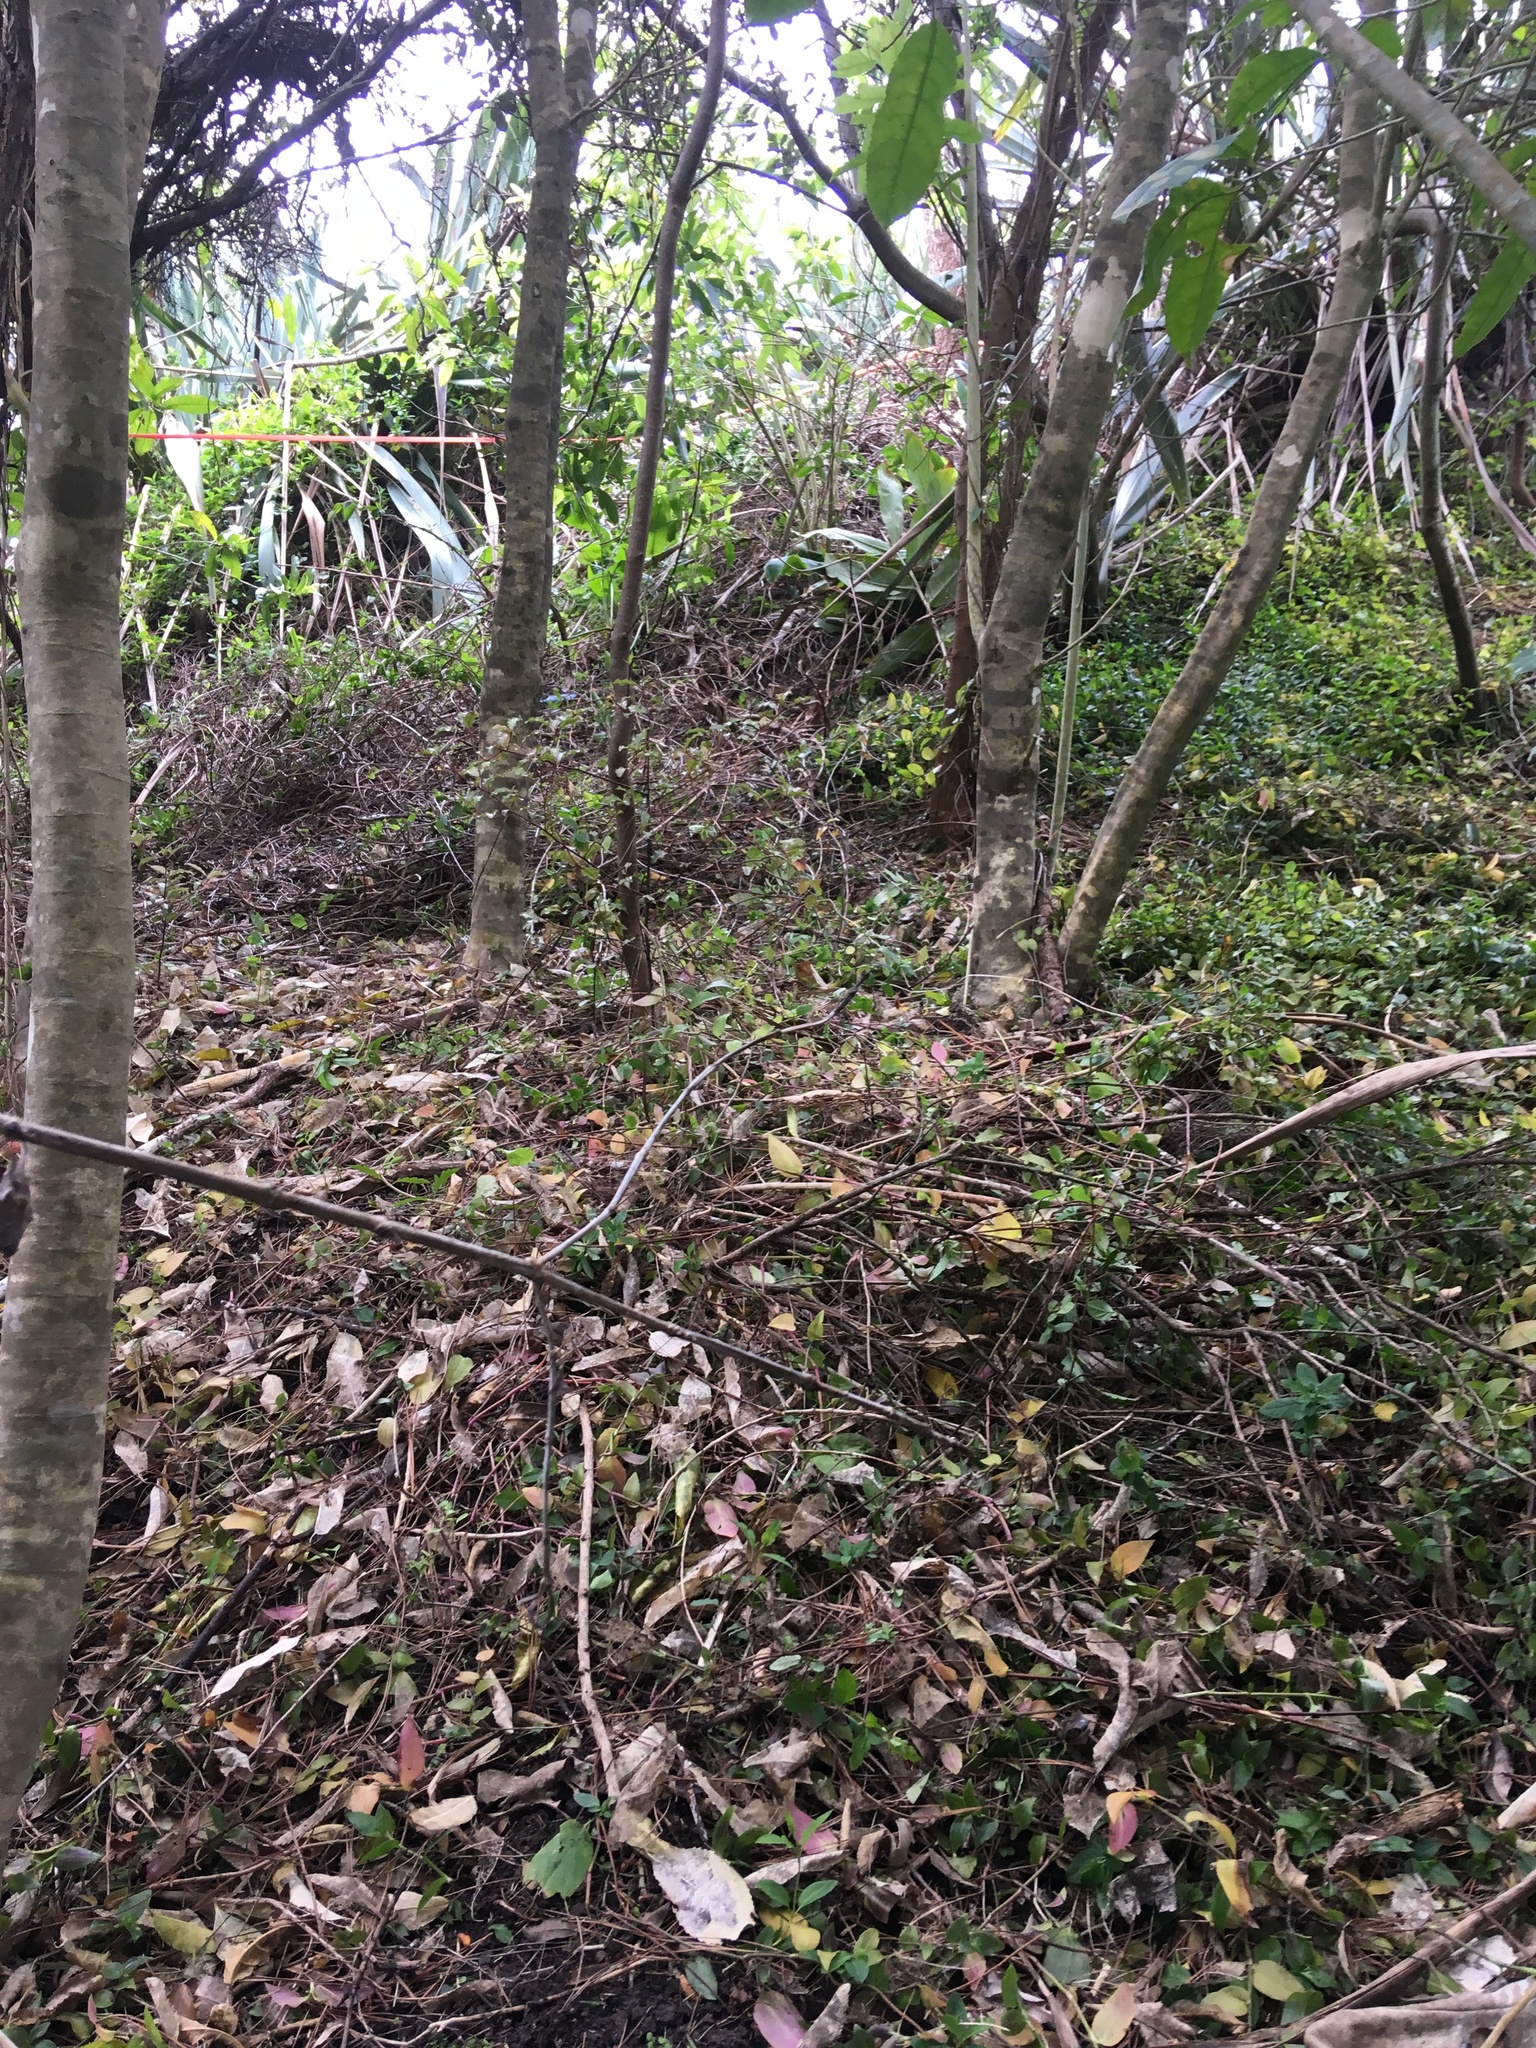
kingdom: Plantae
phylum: Tracheophyta
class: Liliopsida
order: Commelinales
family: Commelinaceae
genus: Tradescantia
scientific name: Tradescantia fluminensis
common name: Wandering-jew
